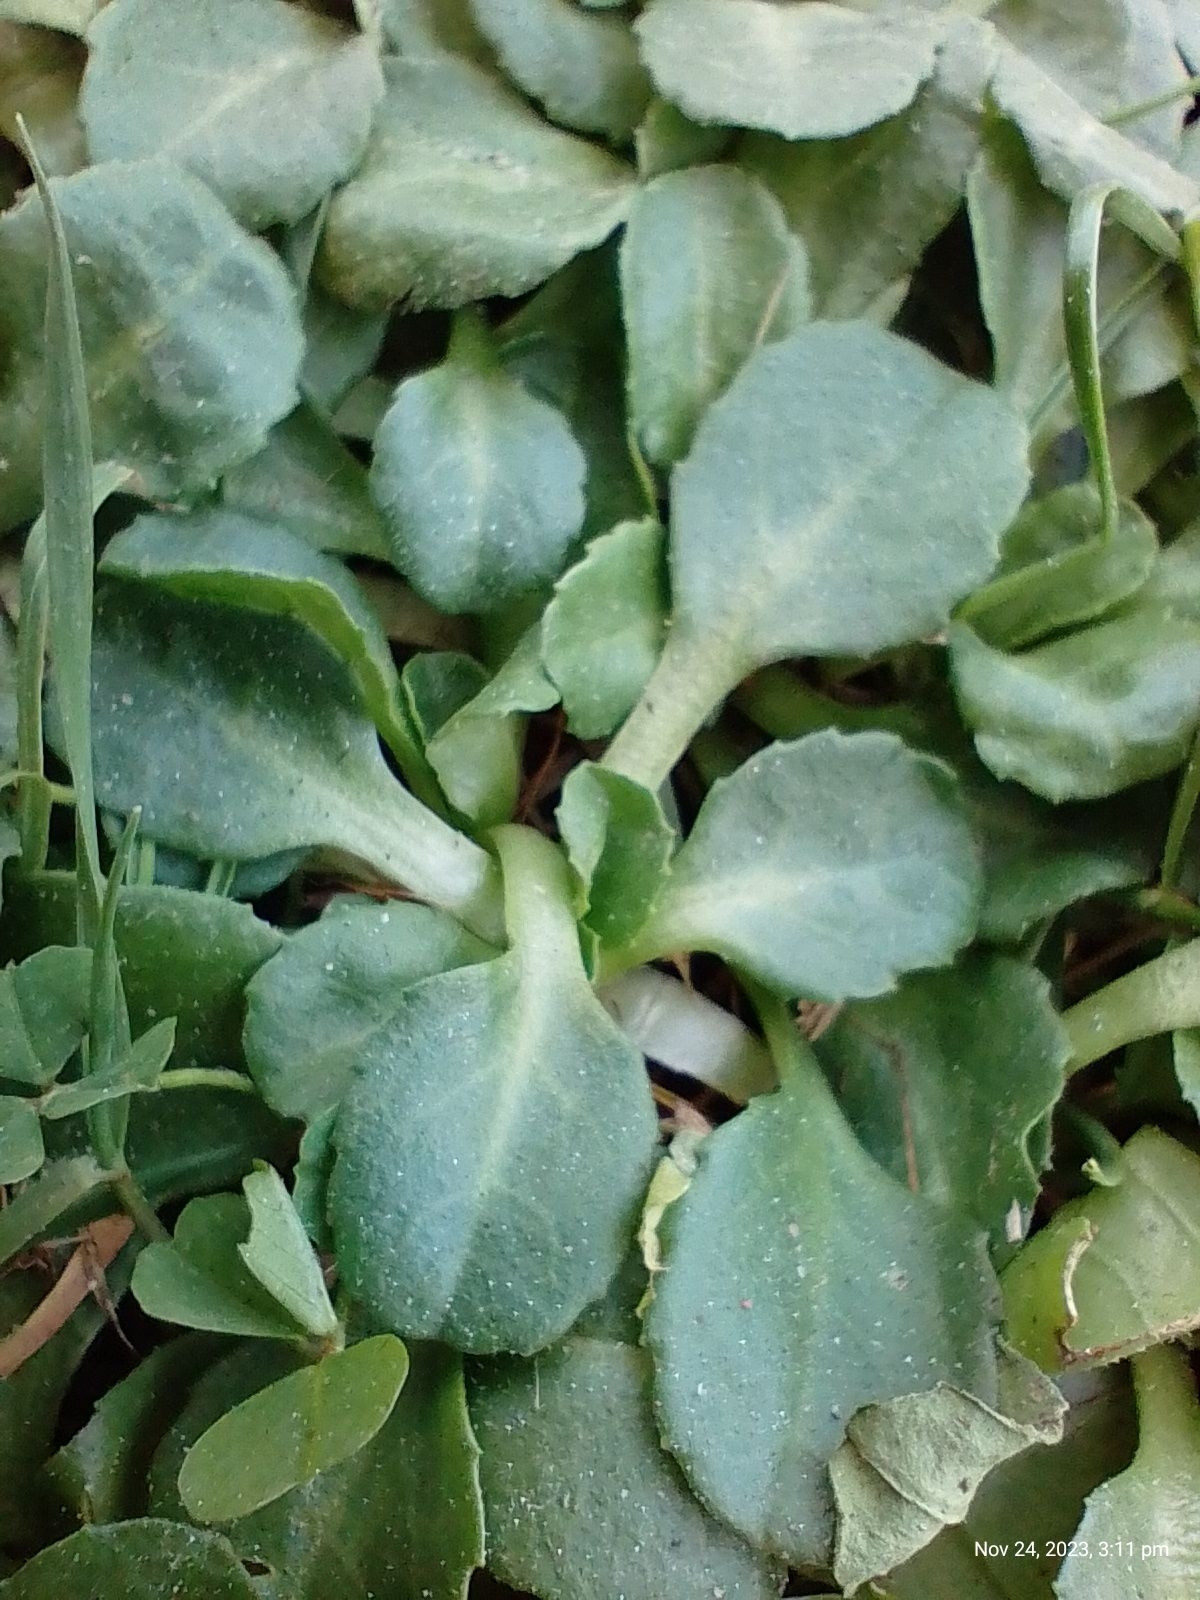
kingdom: Plantae
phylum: Tracheophyta
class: Magnoliopsida
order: Asterales
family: Asteraceae
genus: Bellis
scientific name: Bellis perennis
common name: Lawndaisy
